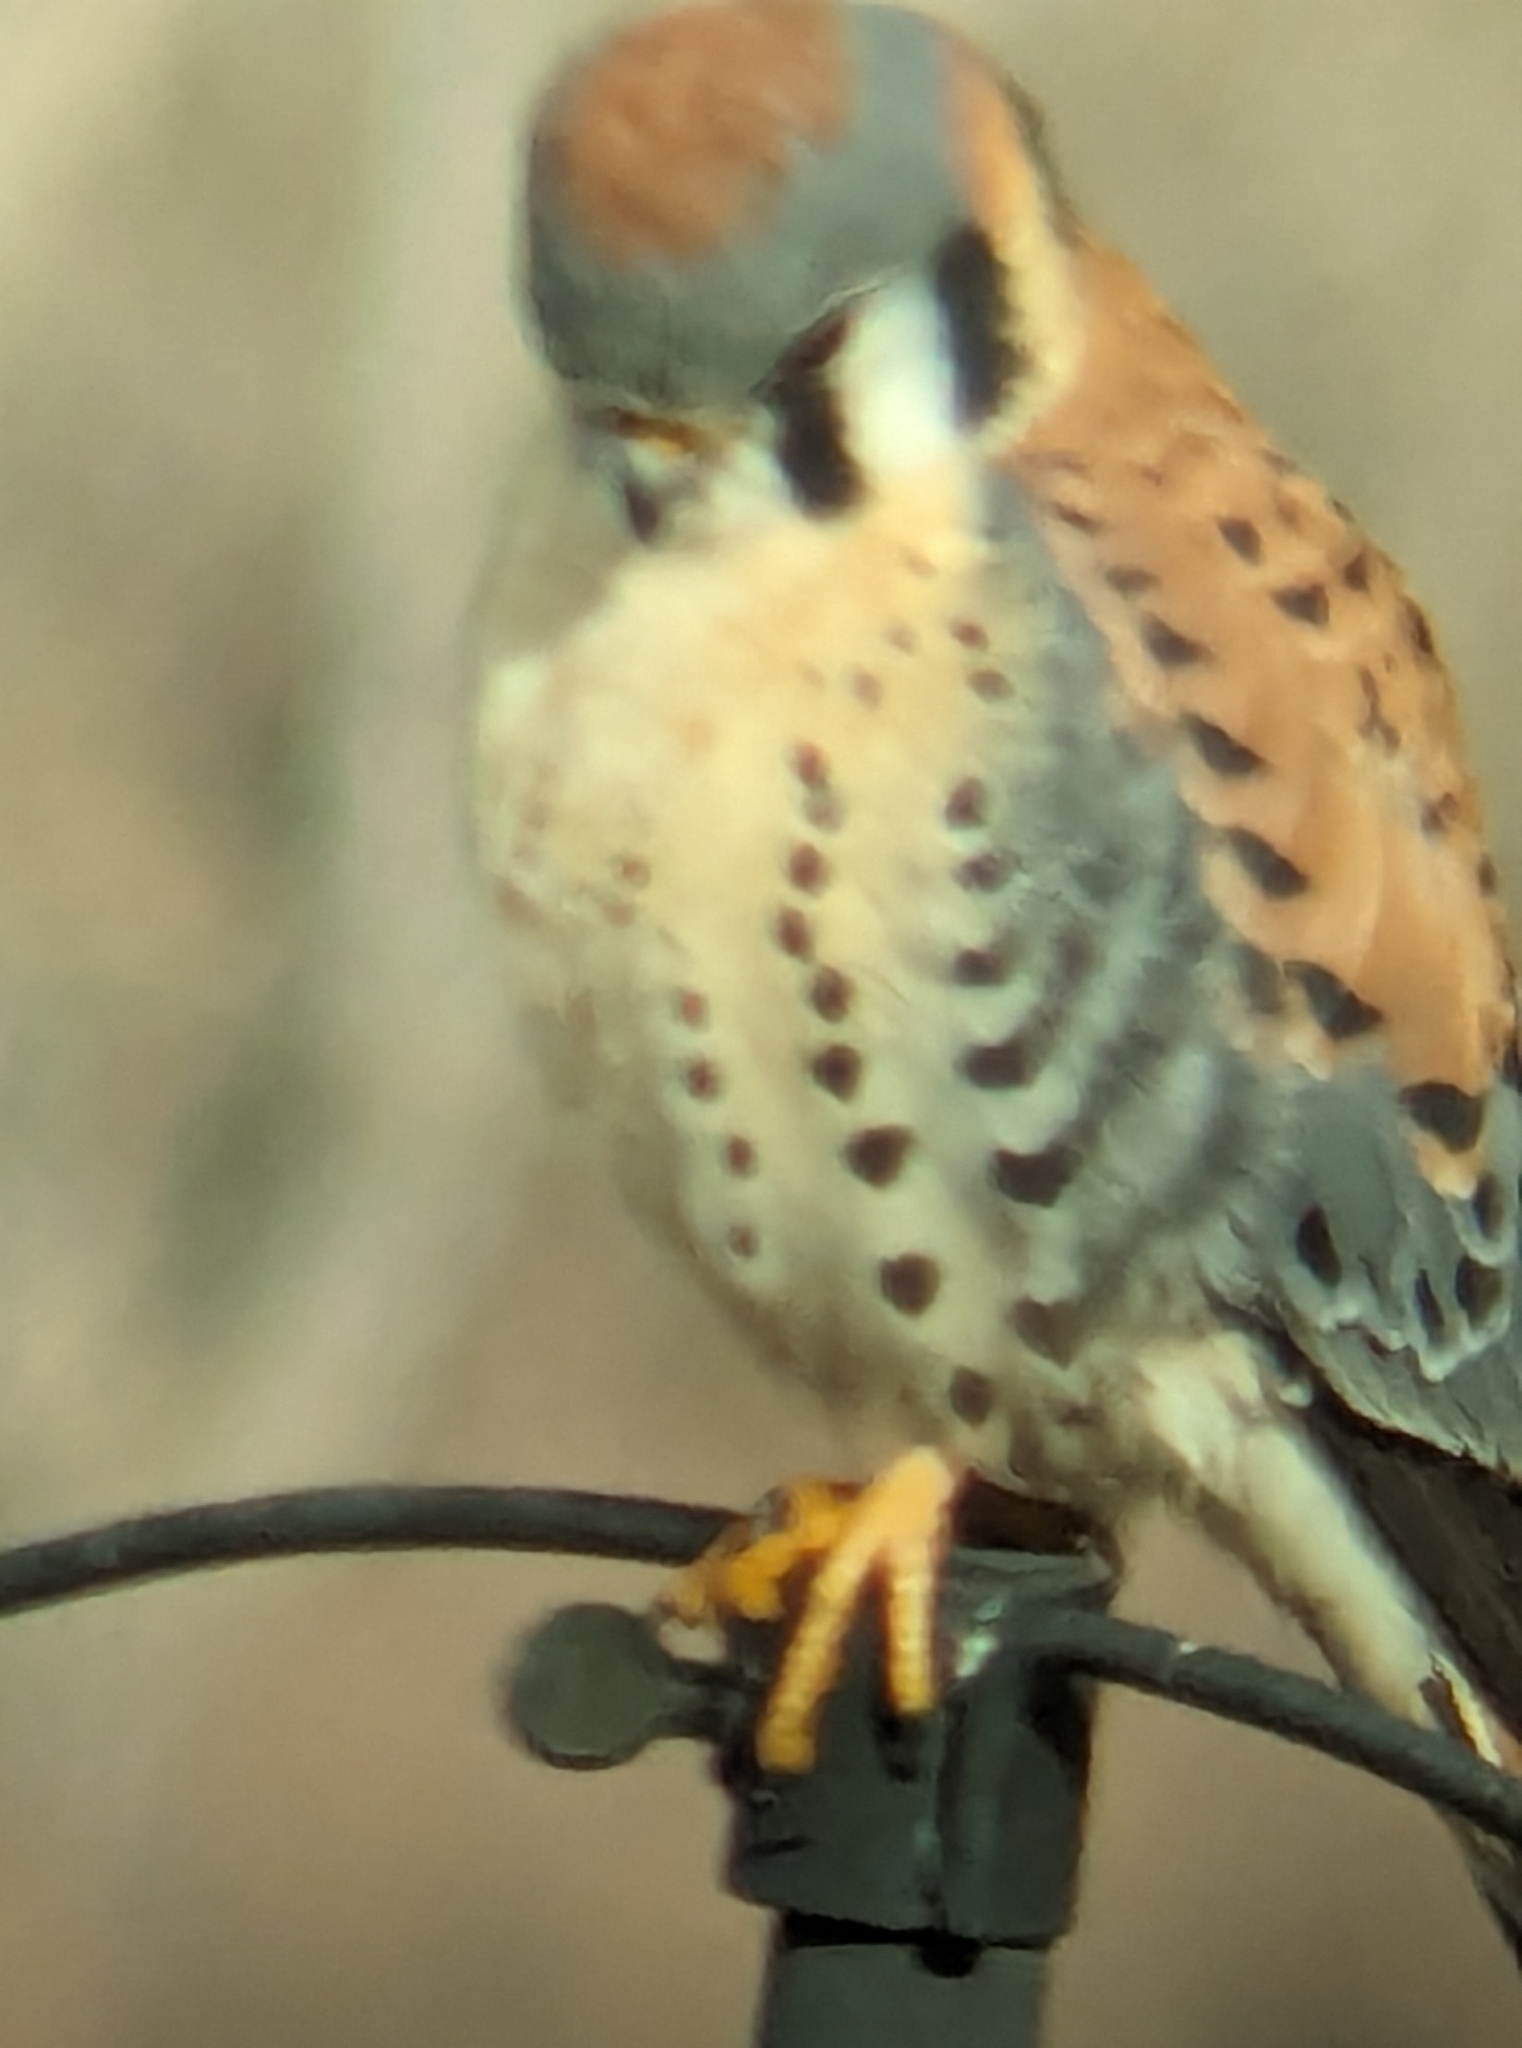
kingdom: Animalia
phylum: Chordata
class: Aves
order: Falconiformes
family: Falconidae
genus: Falco
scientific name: Falco sparverius
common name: American kestrel
